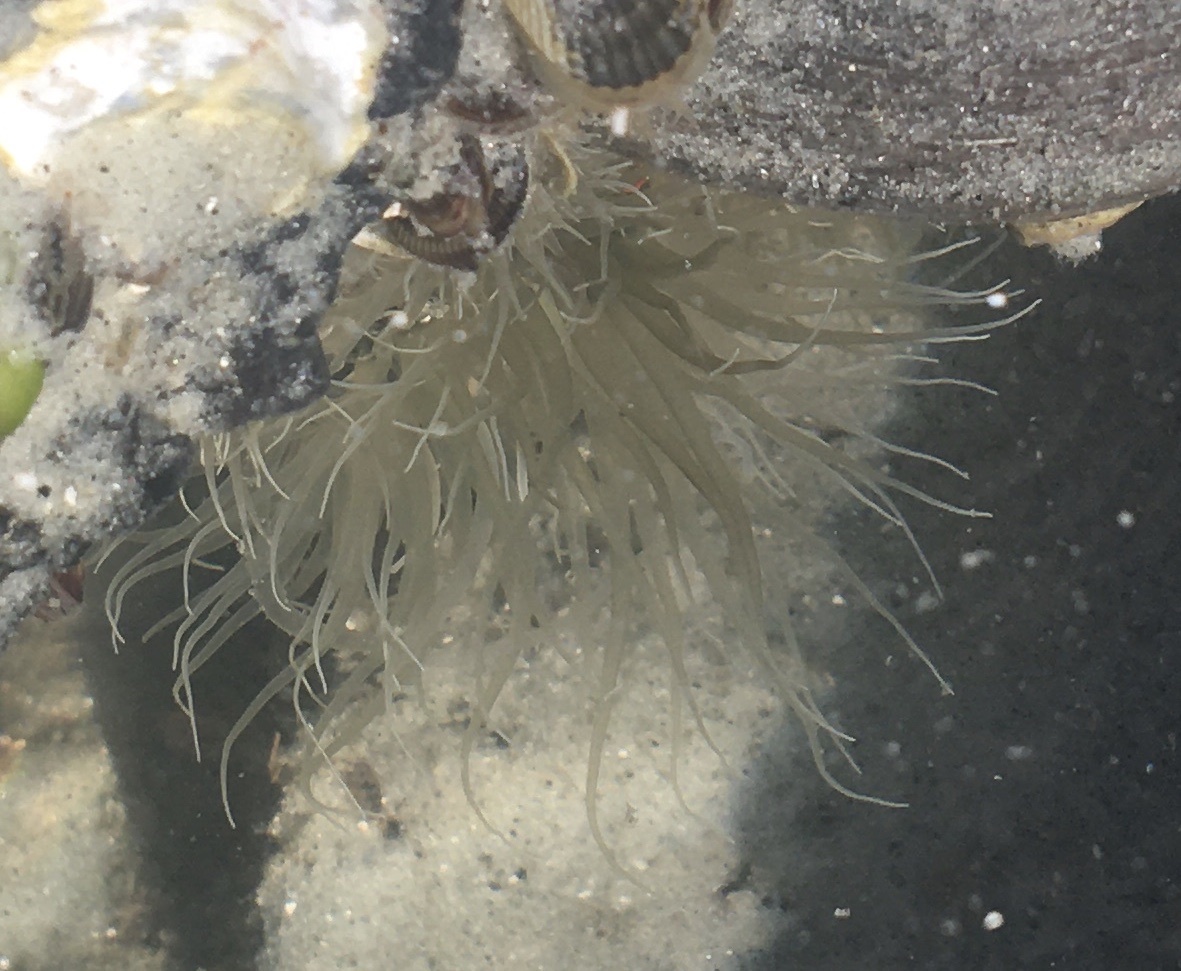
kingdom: Animalia
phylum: Cnidaria
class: Anthozoa
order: Actiniaria
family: Diadumenidae
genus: Diadumene
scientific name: Diadumene lineata
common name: Orange-striped anemone
